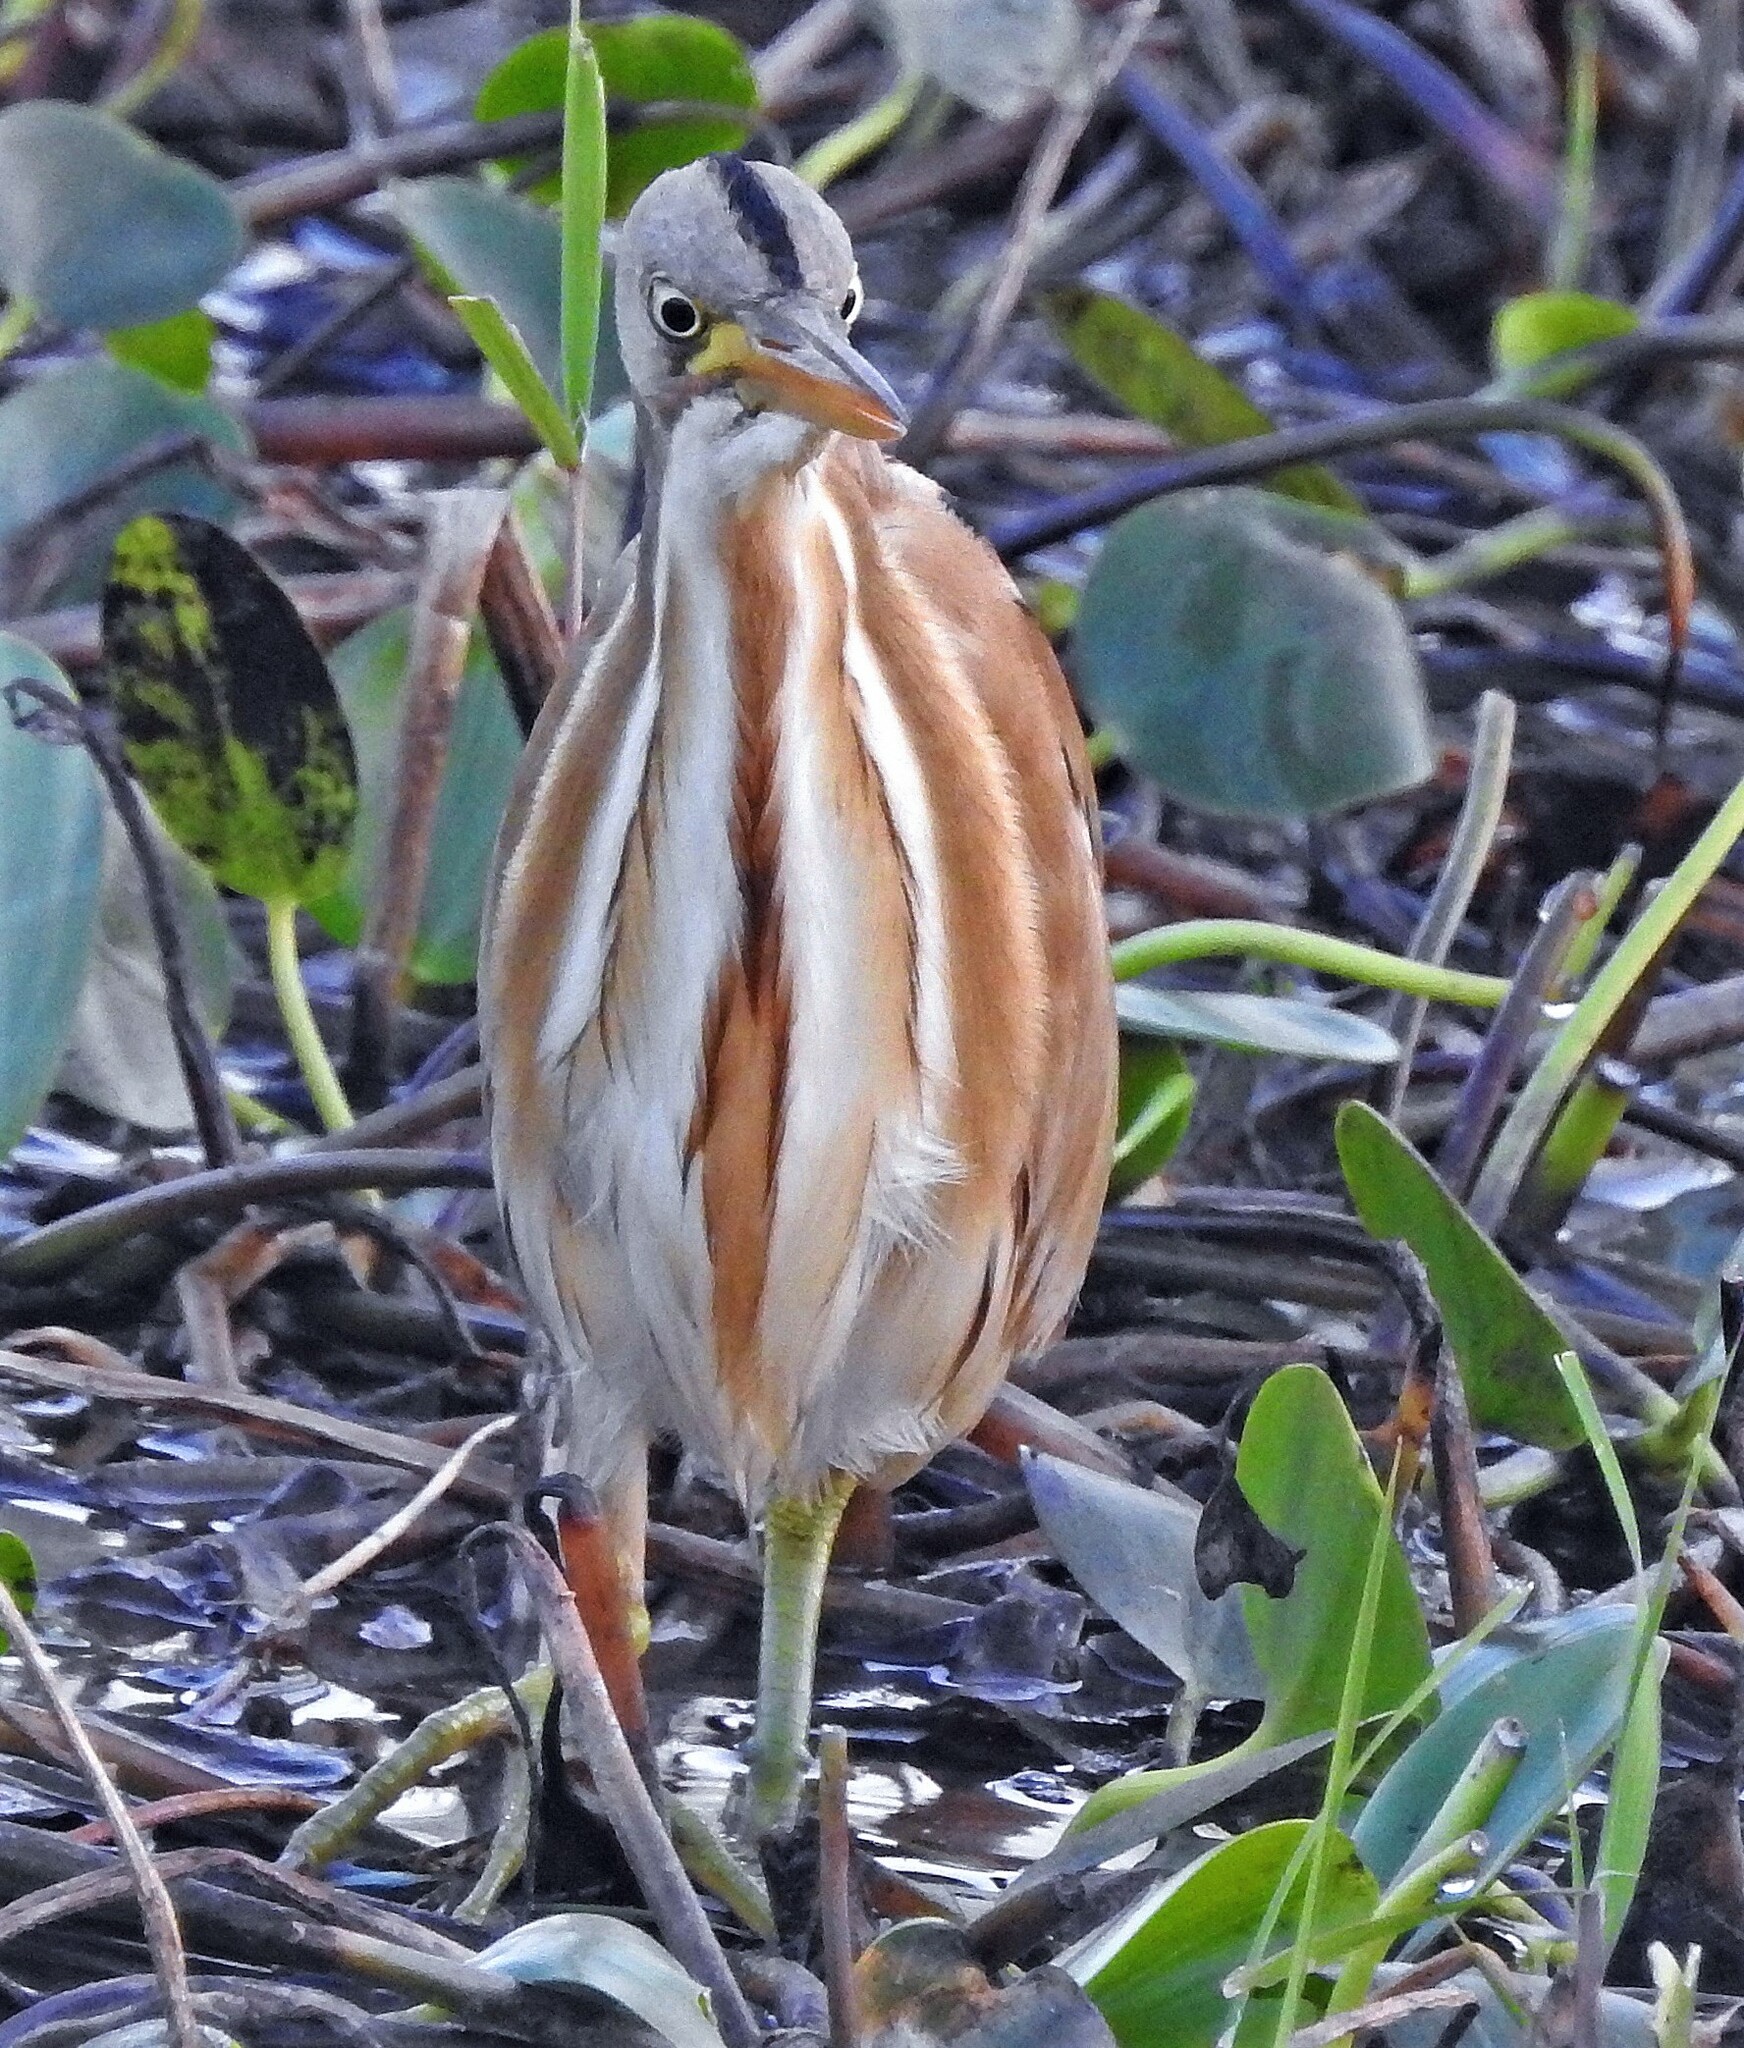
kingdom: Animalia
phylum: Chordata
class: Aves
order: Pelecaniformes
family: Ardeidae
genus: Ixobrychus
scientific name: Ixobrychus involucris
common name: Stripe-backed bittern
